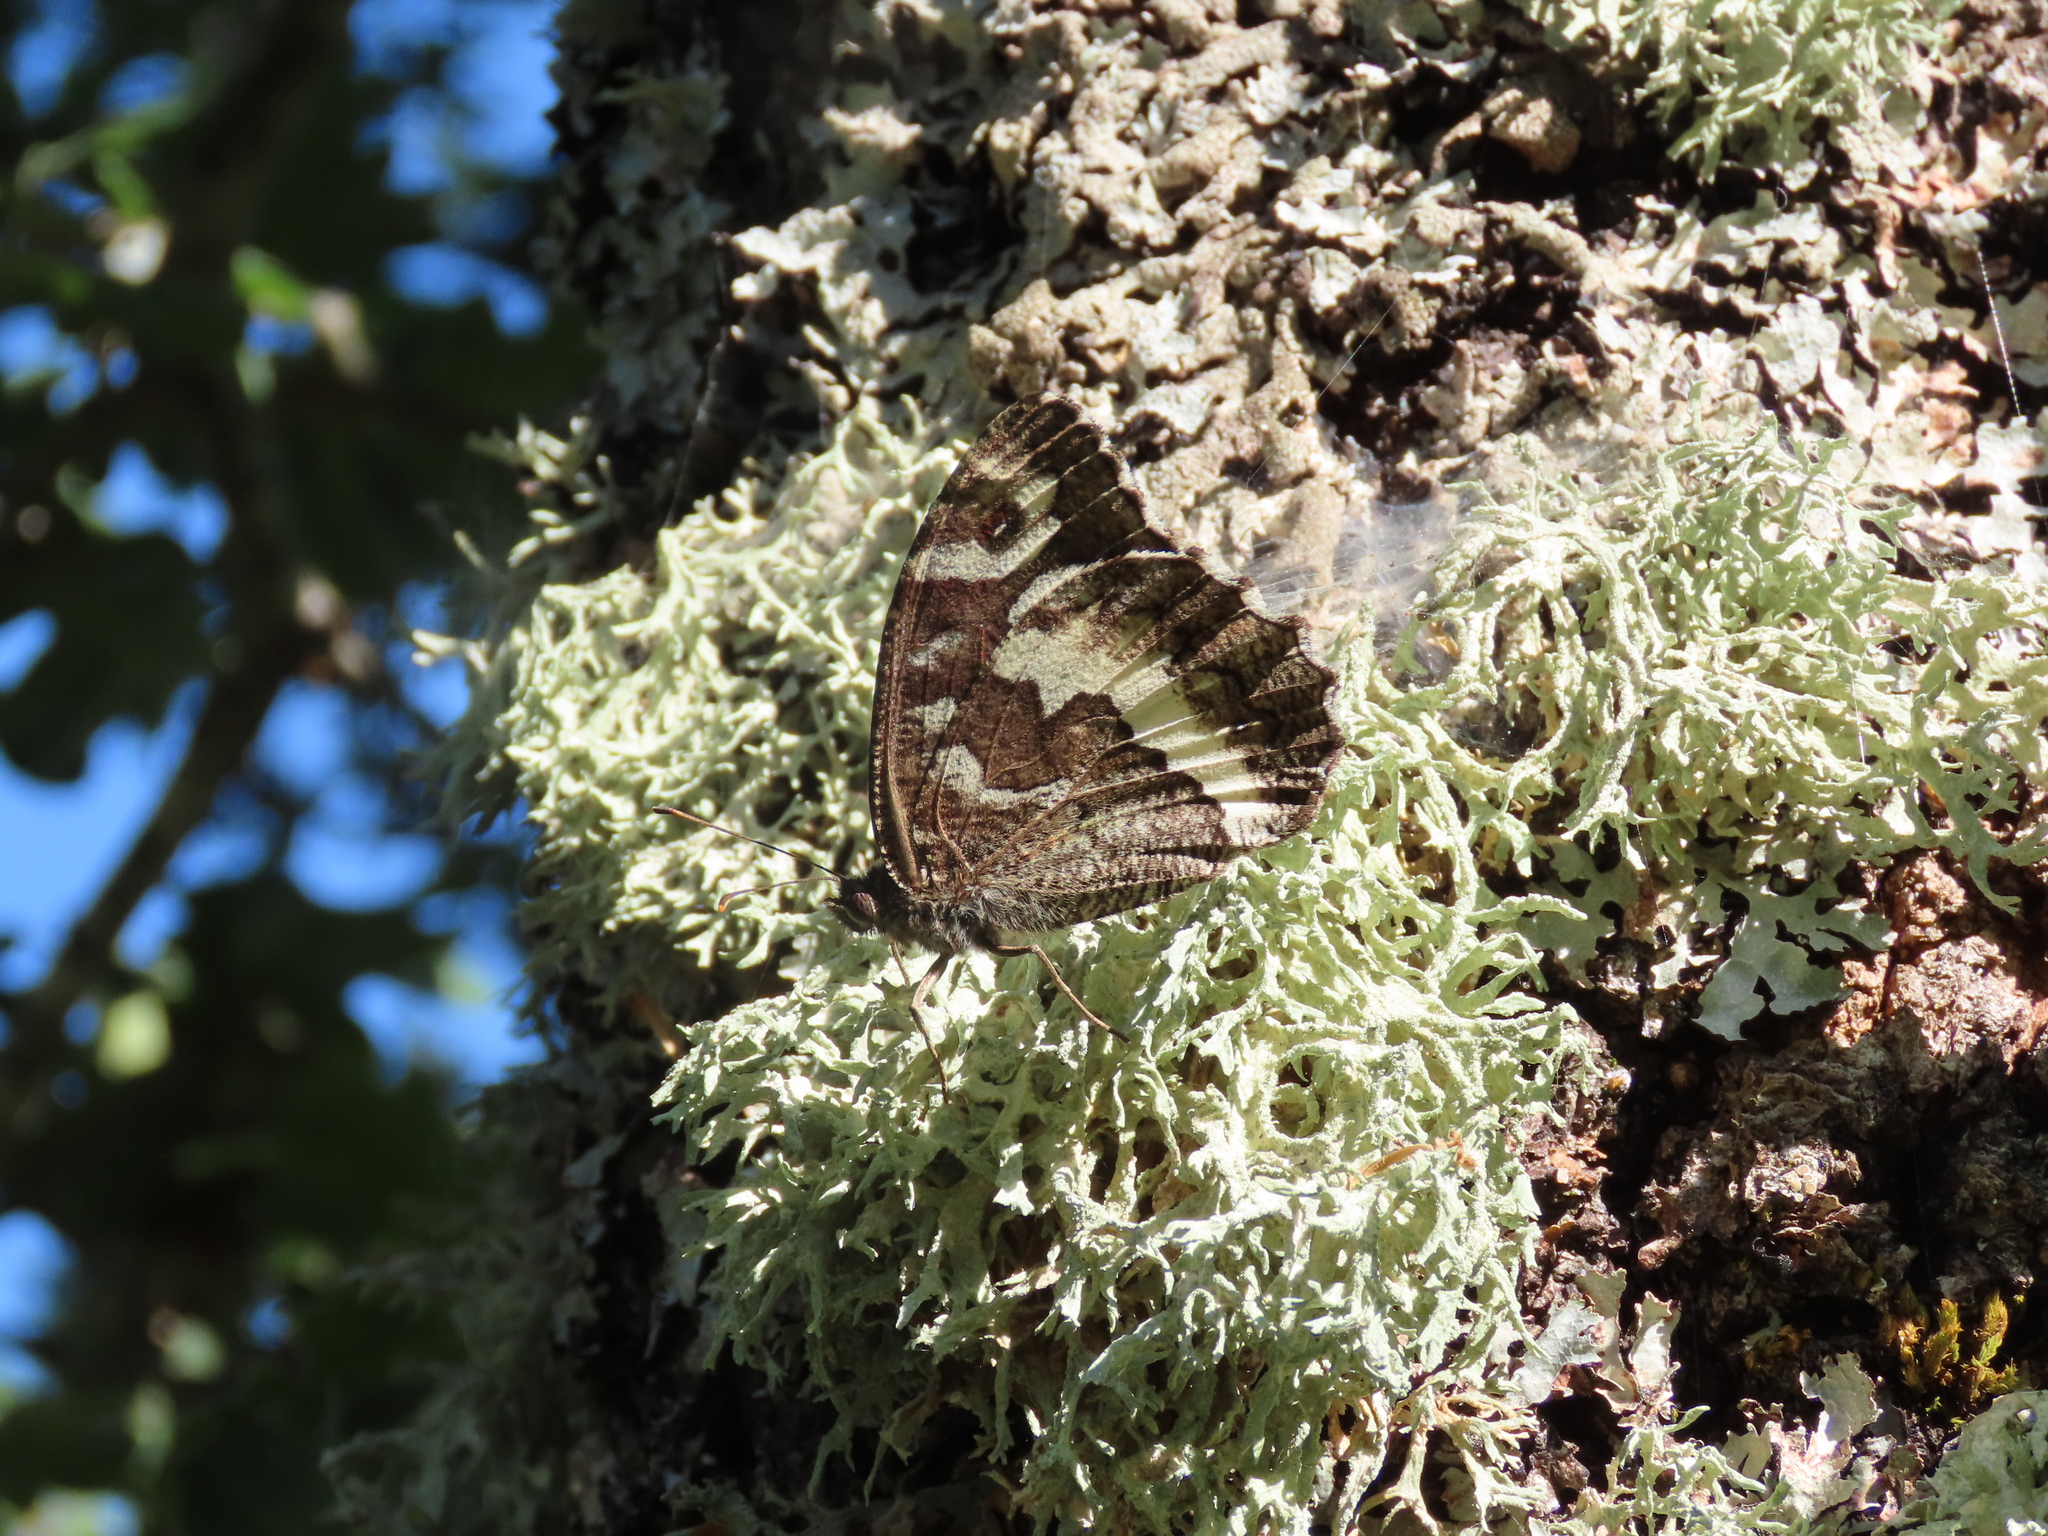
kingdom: Animalia
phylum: Arthropoda
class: Insecta
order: Lepidoptera
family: Lycaenidae
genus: Loweia
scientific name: Loweia tityrus
